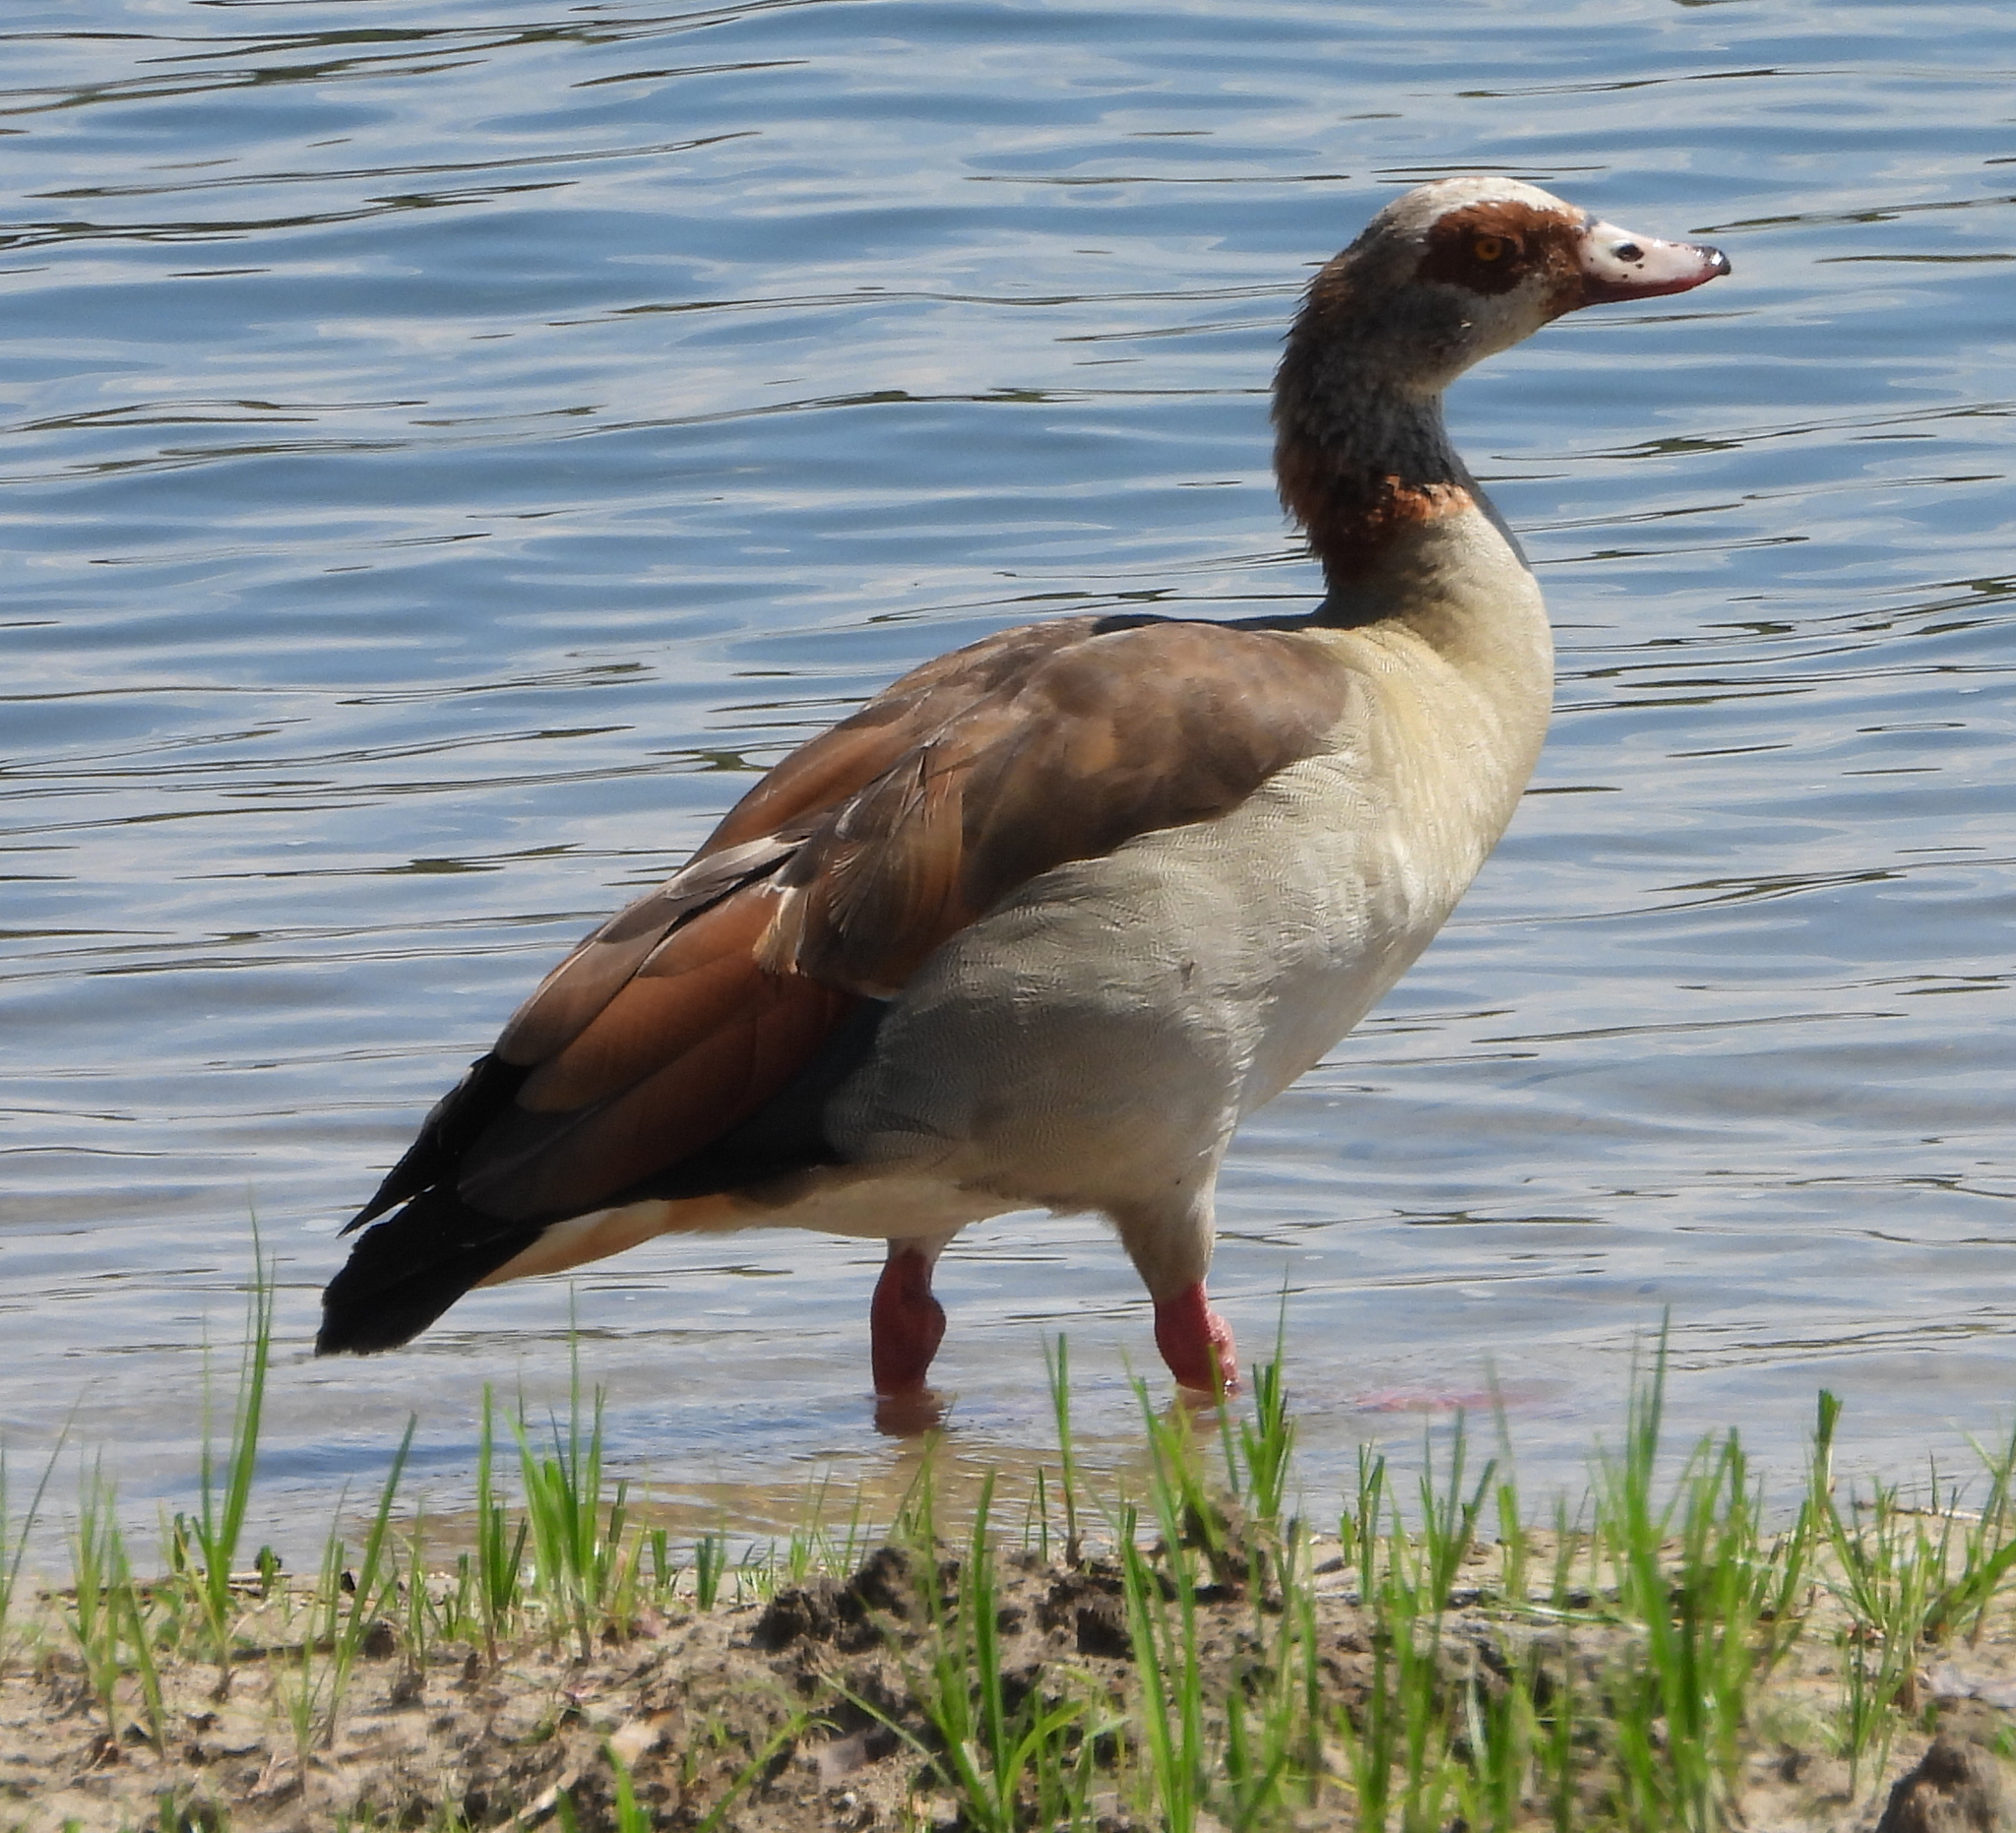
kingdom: Animalia
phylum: Chordata
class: Aves
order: Anseriformes
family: Anatidae
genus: Alopochen
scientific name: Alopochen aegyptiaca
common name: Egyptian goose
